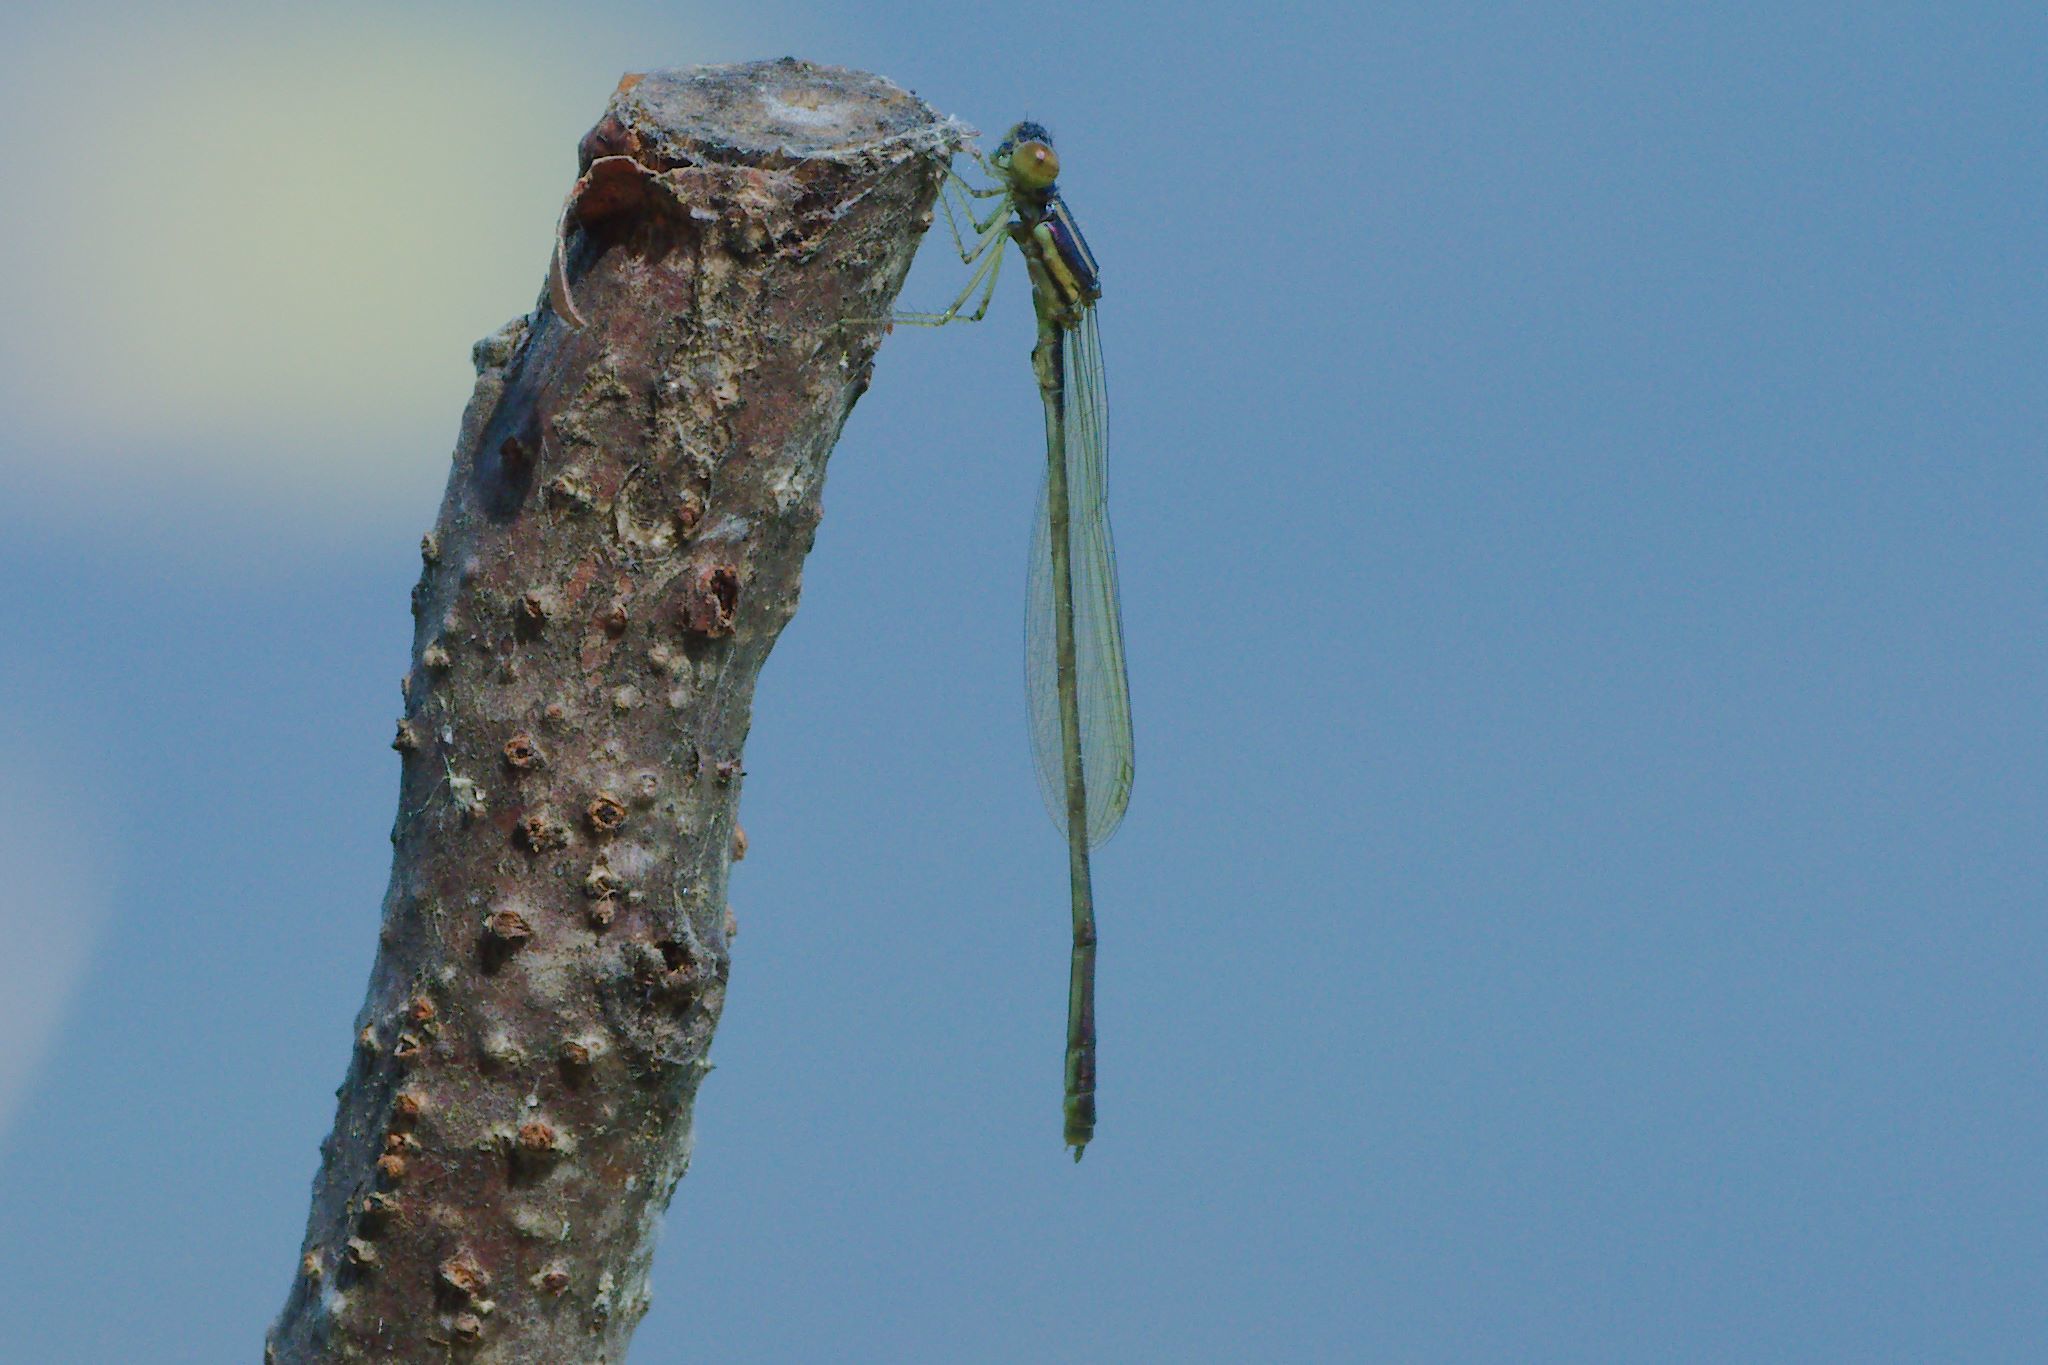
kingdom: Animalia
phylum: Arthropoda
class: Insecta
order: Odonata
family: Coenagrionidae
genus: Enallagma
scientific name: Enallagma dubium
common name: Burgundy bluet
